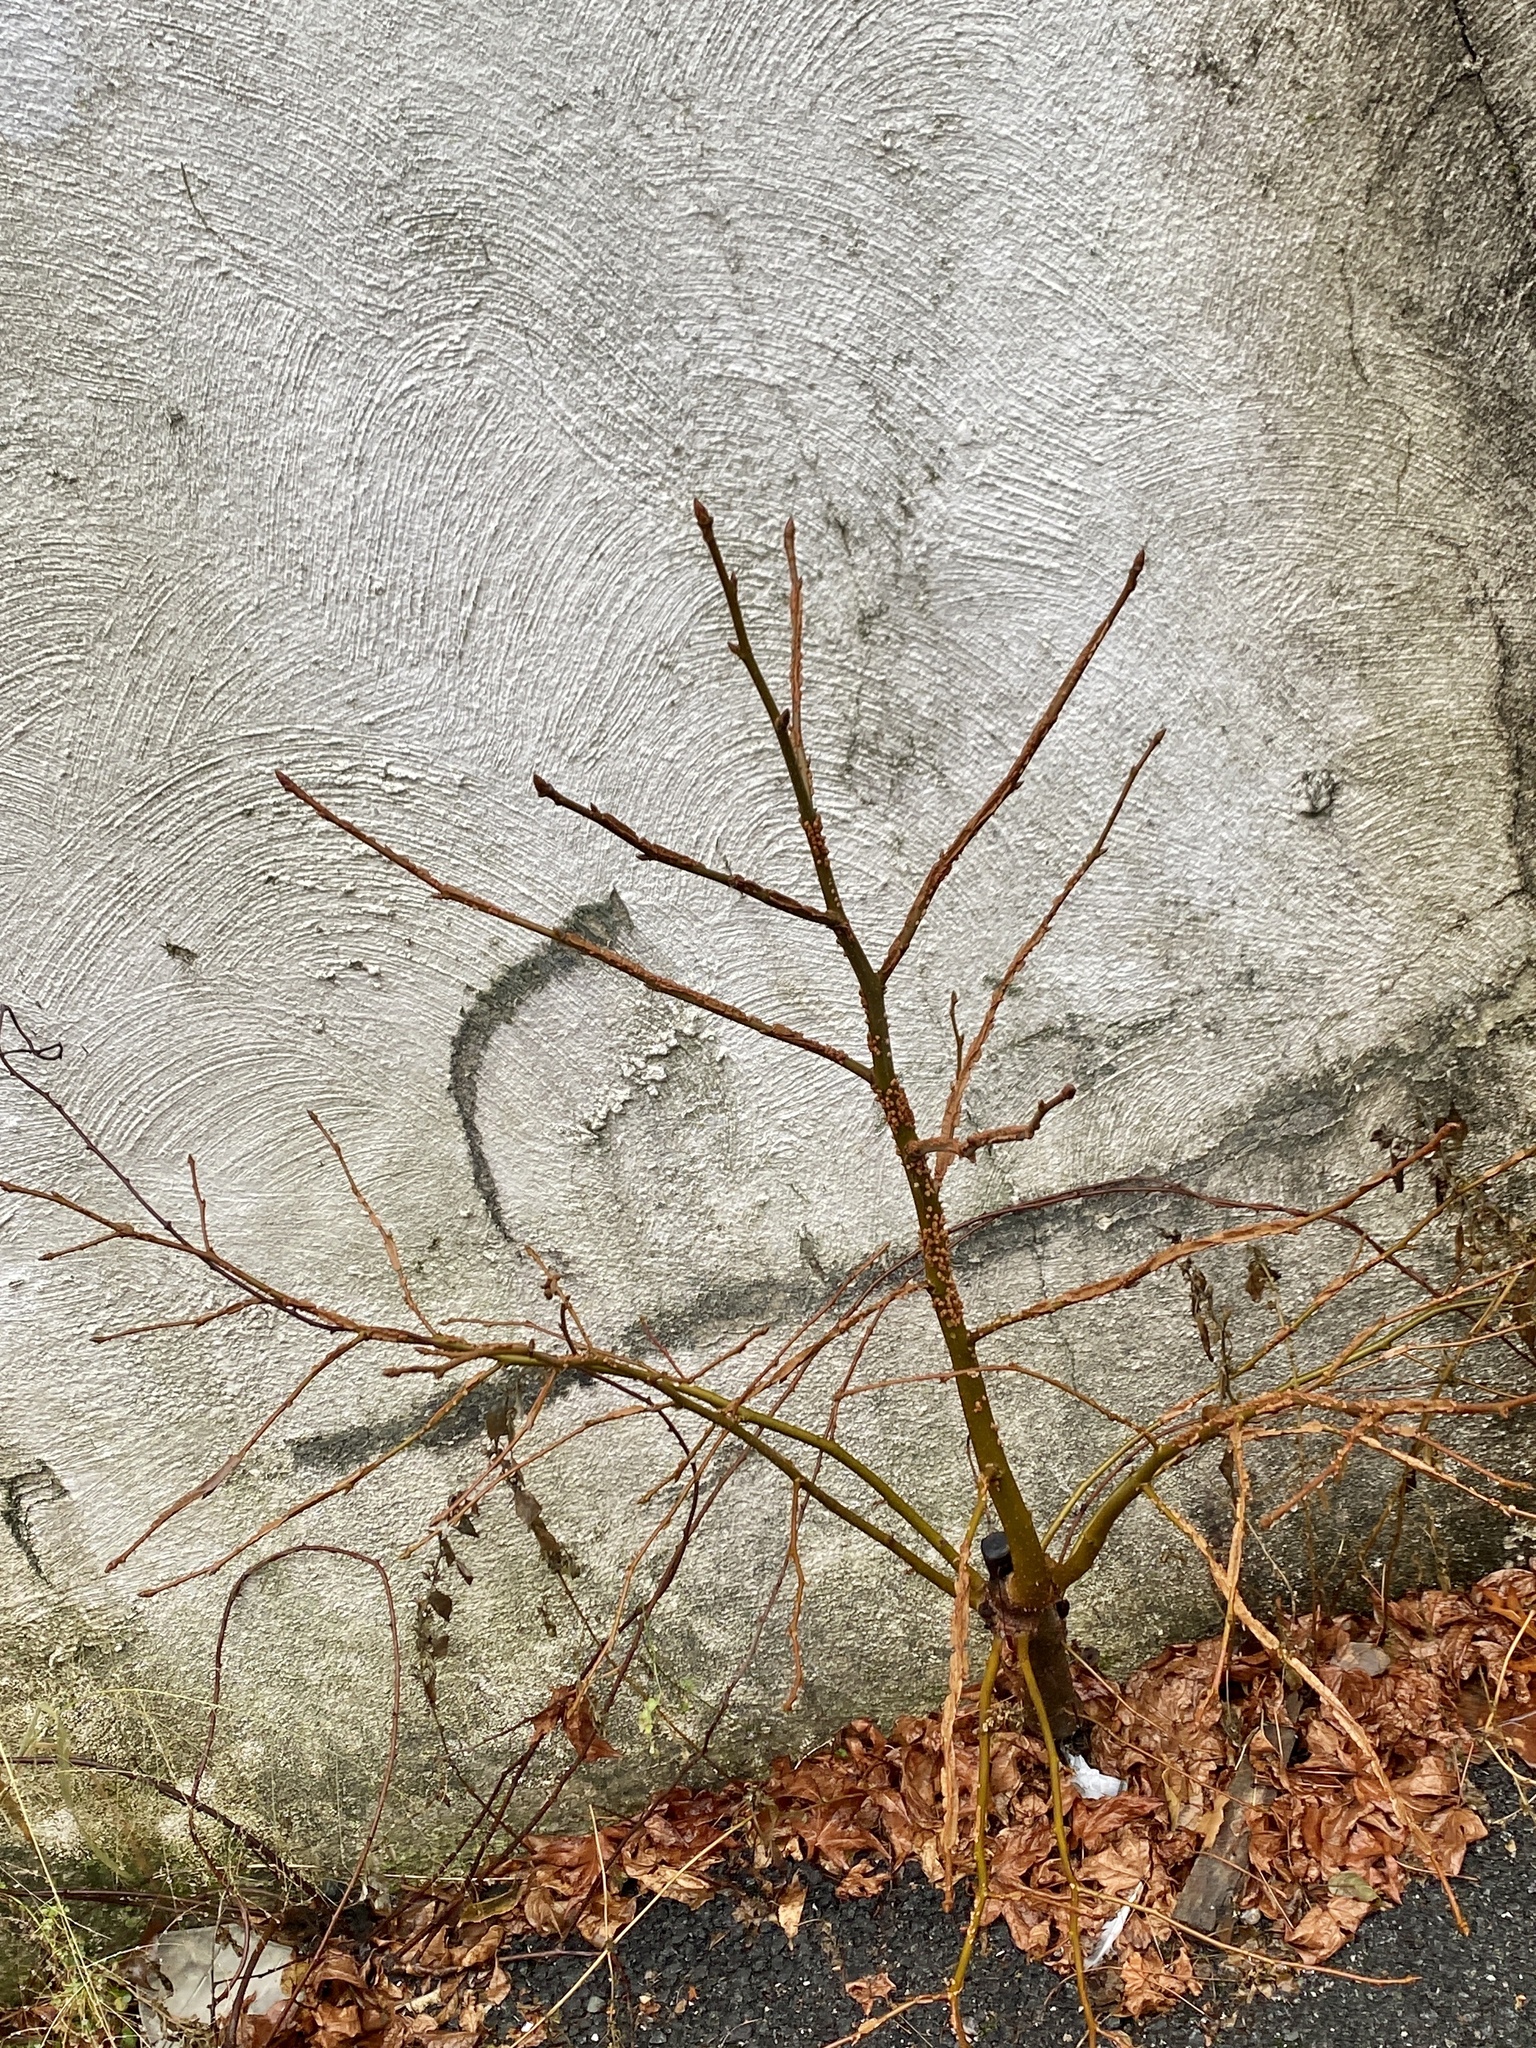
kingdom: Plantae
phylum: Tracheophyta
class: Magnoliopsida
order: Saxifragales
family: Altingiaceae
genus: Liquidambar
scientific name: Liquidambar styraciflua
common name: Sweet gum
